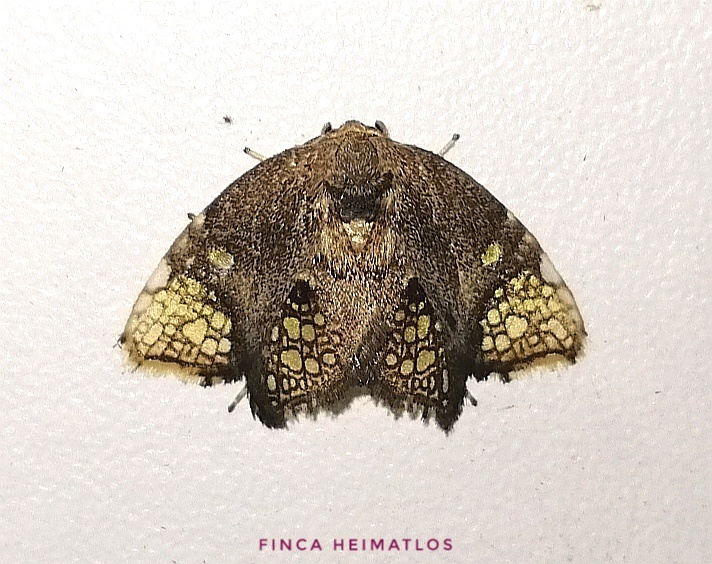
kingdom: Animalia
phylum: Arthropoda
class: Insecta
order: Lepidoptera
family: Psychidae
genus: Cnissostages
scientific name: Cnissostages osae
